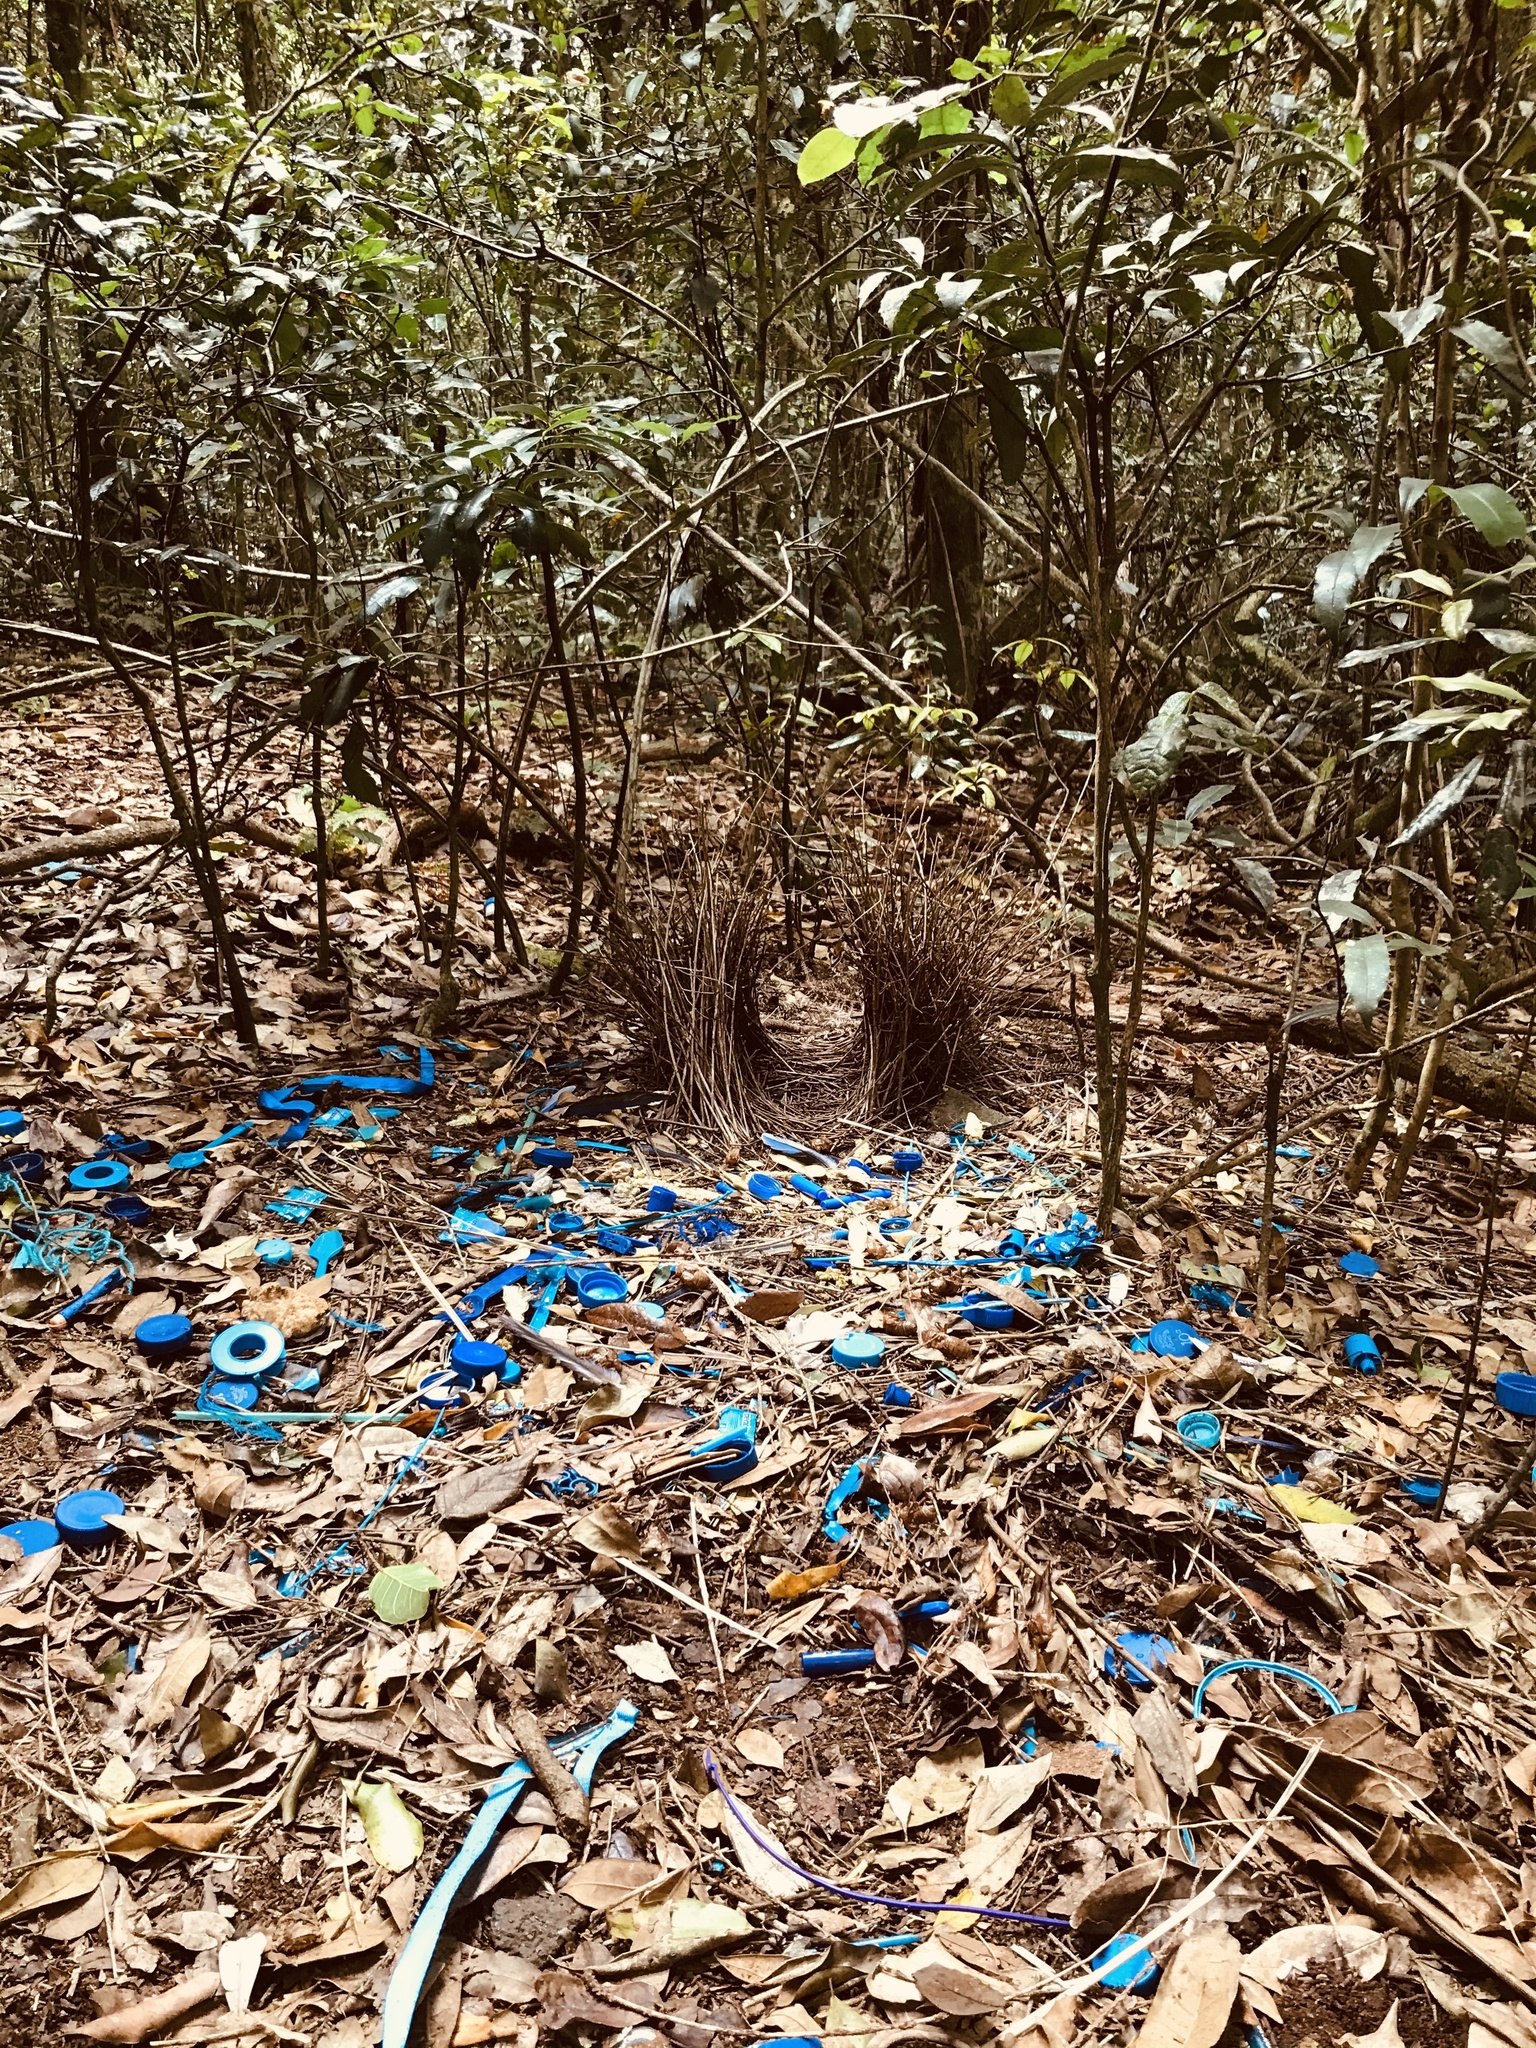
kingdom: Animalia
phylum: Chordata
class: Aves
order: Passeriformes
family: Ptilonorhynchidae
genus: Ptilonorhynchus
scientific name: Ptilonorhynchus violaceus
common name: Satin bowerbird
